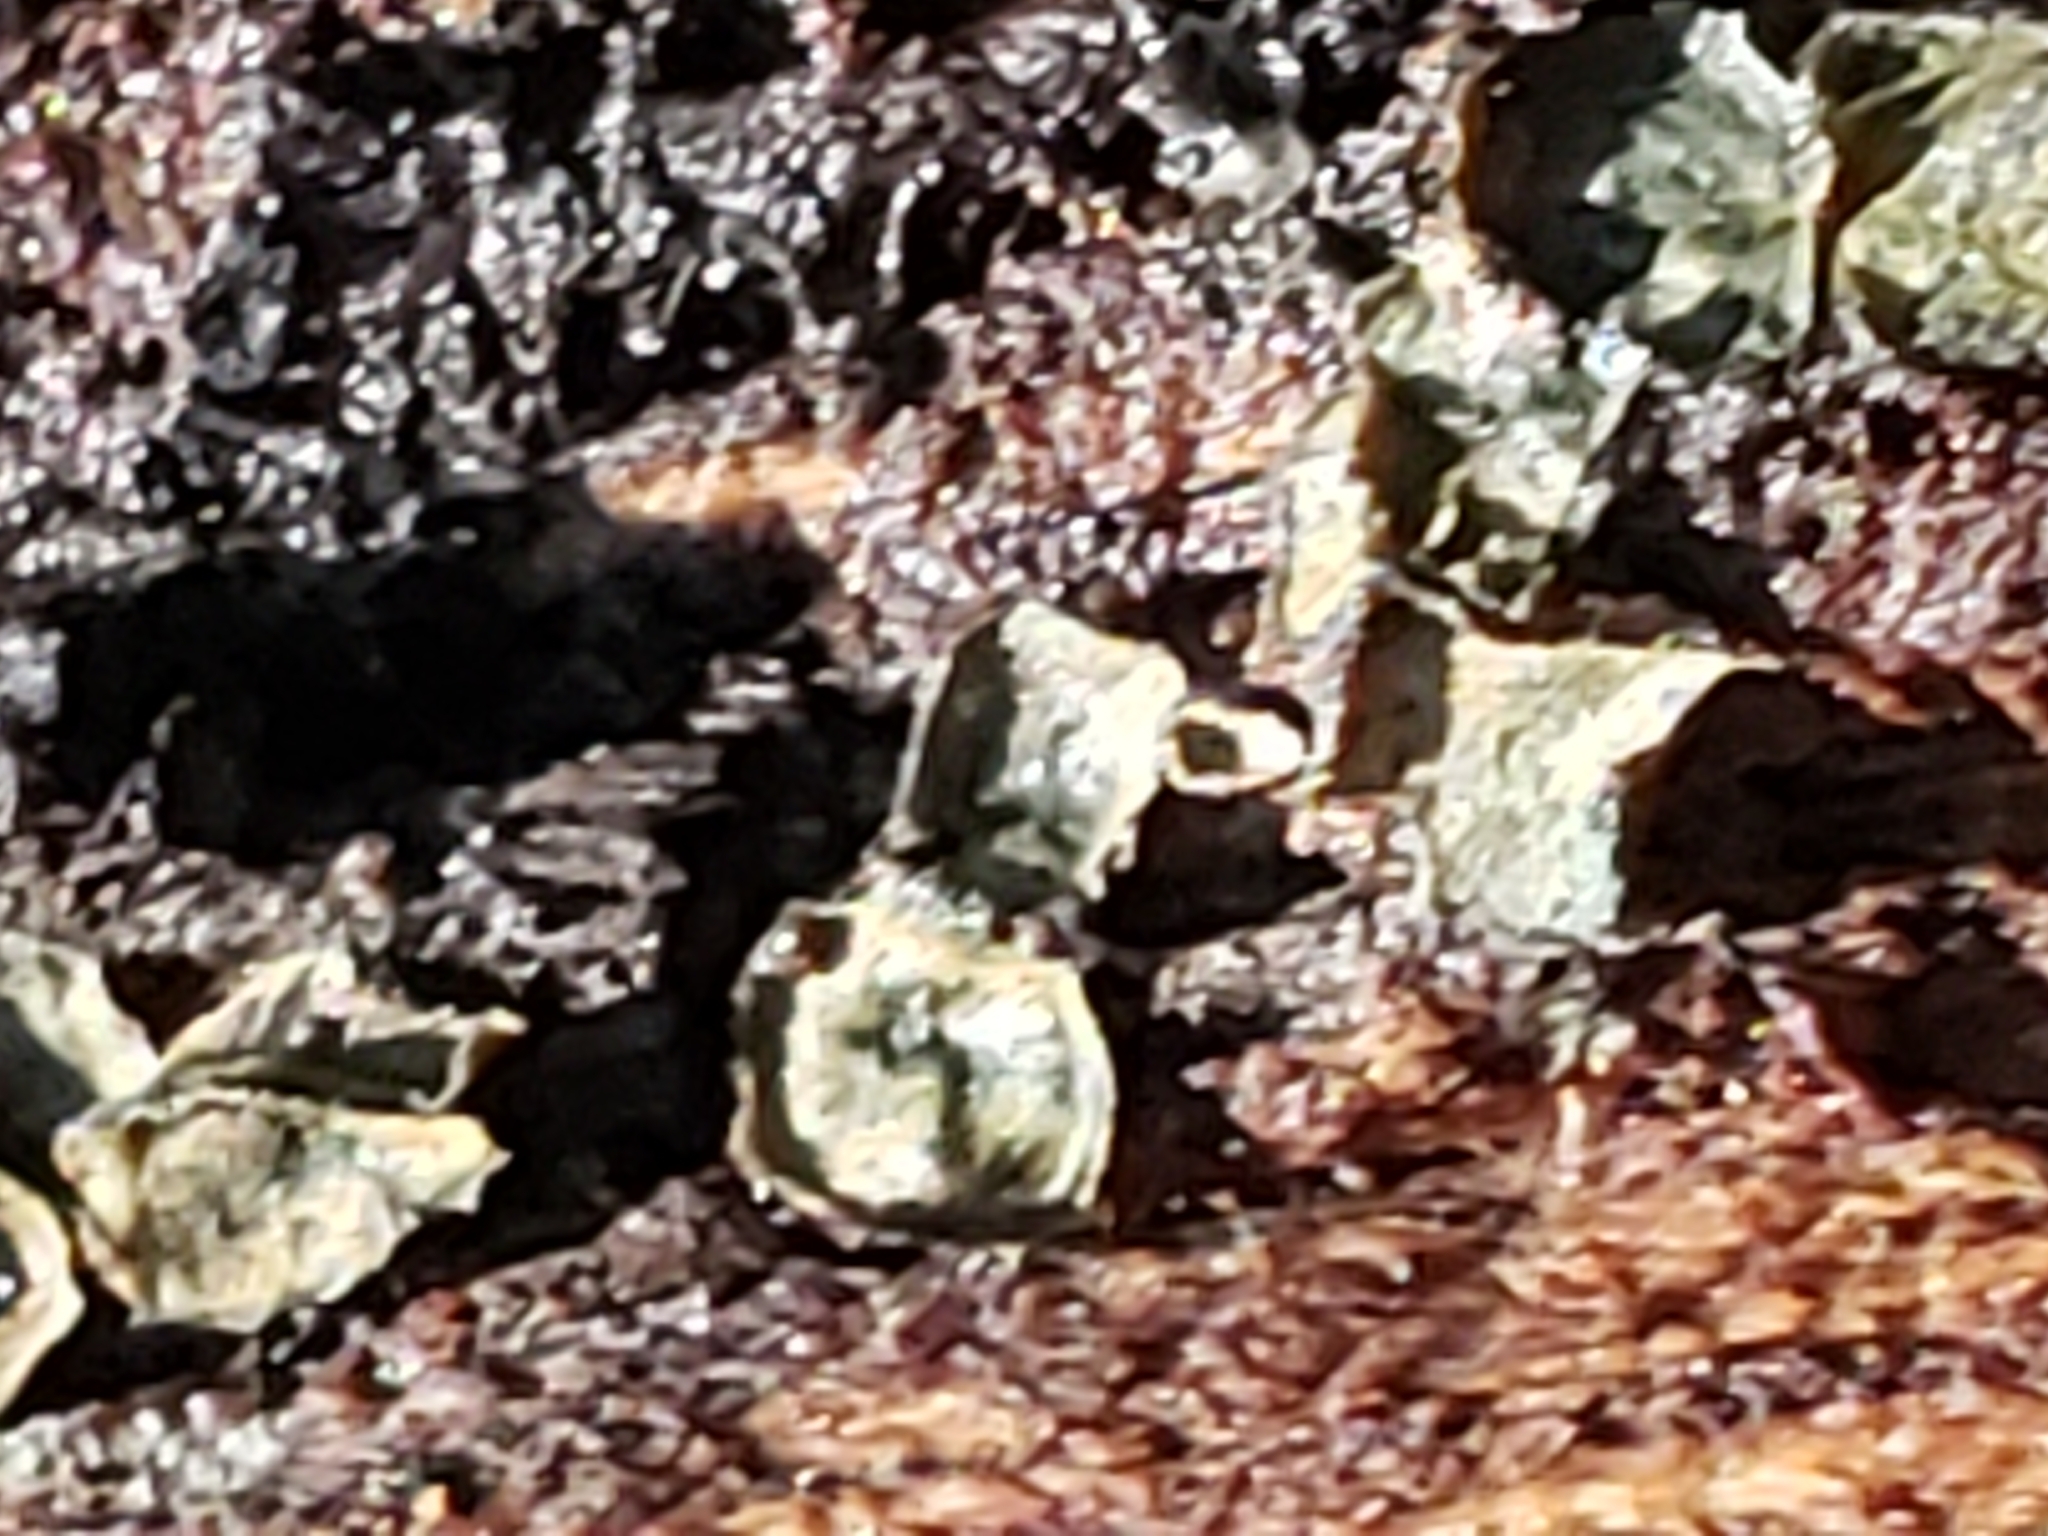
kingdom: Fungi
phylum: Ascomycota
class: Leotiomycetes
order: Helotiales
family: Chlorospleniaceae
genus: Chlorosplenium
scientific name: Chlorosplenium chlora
